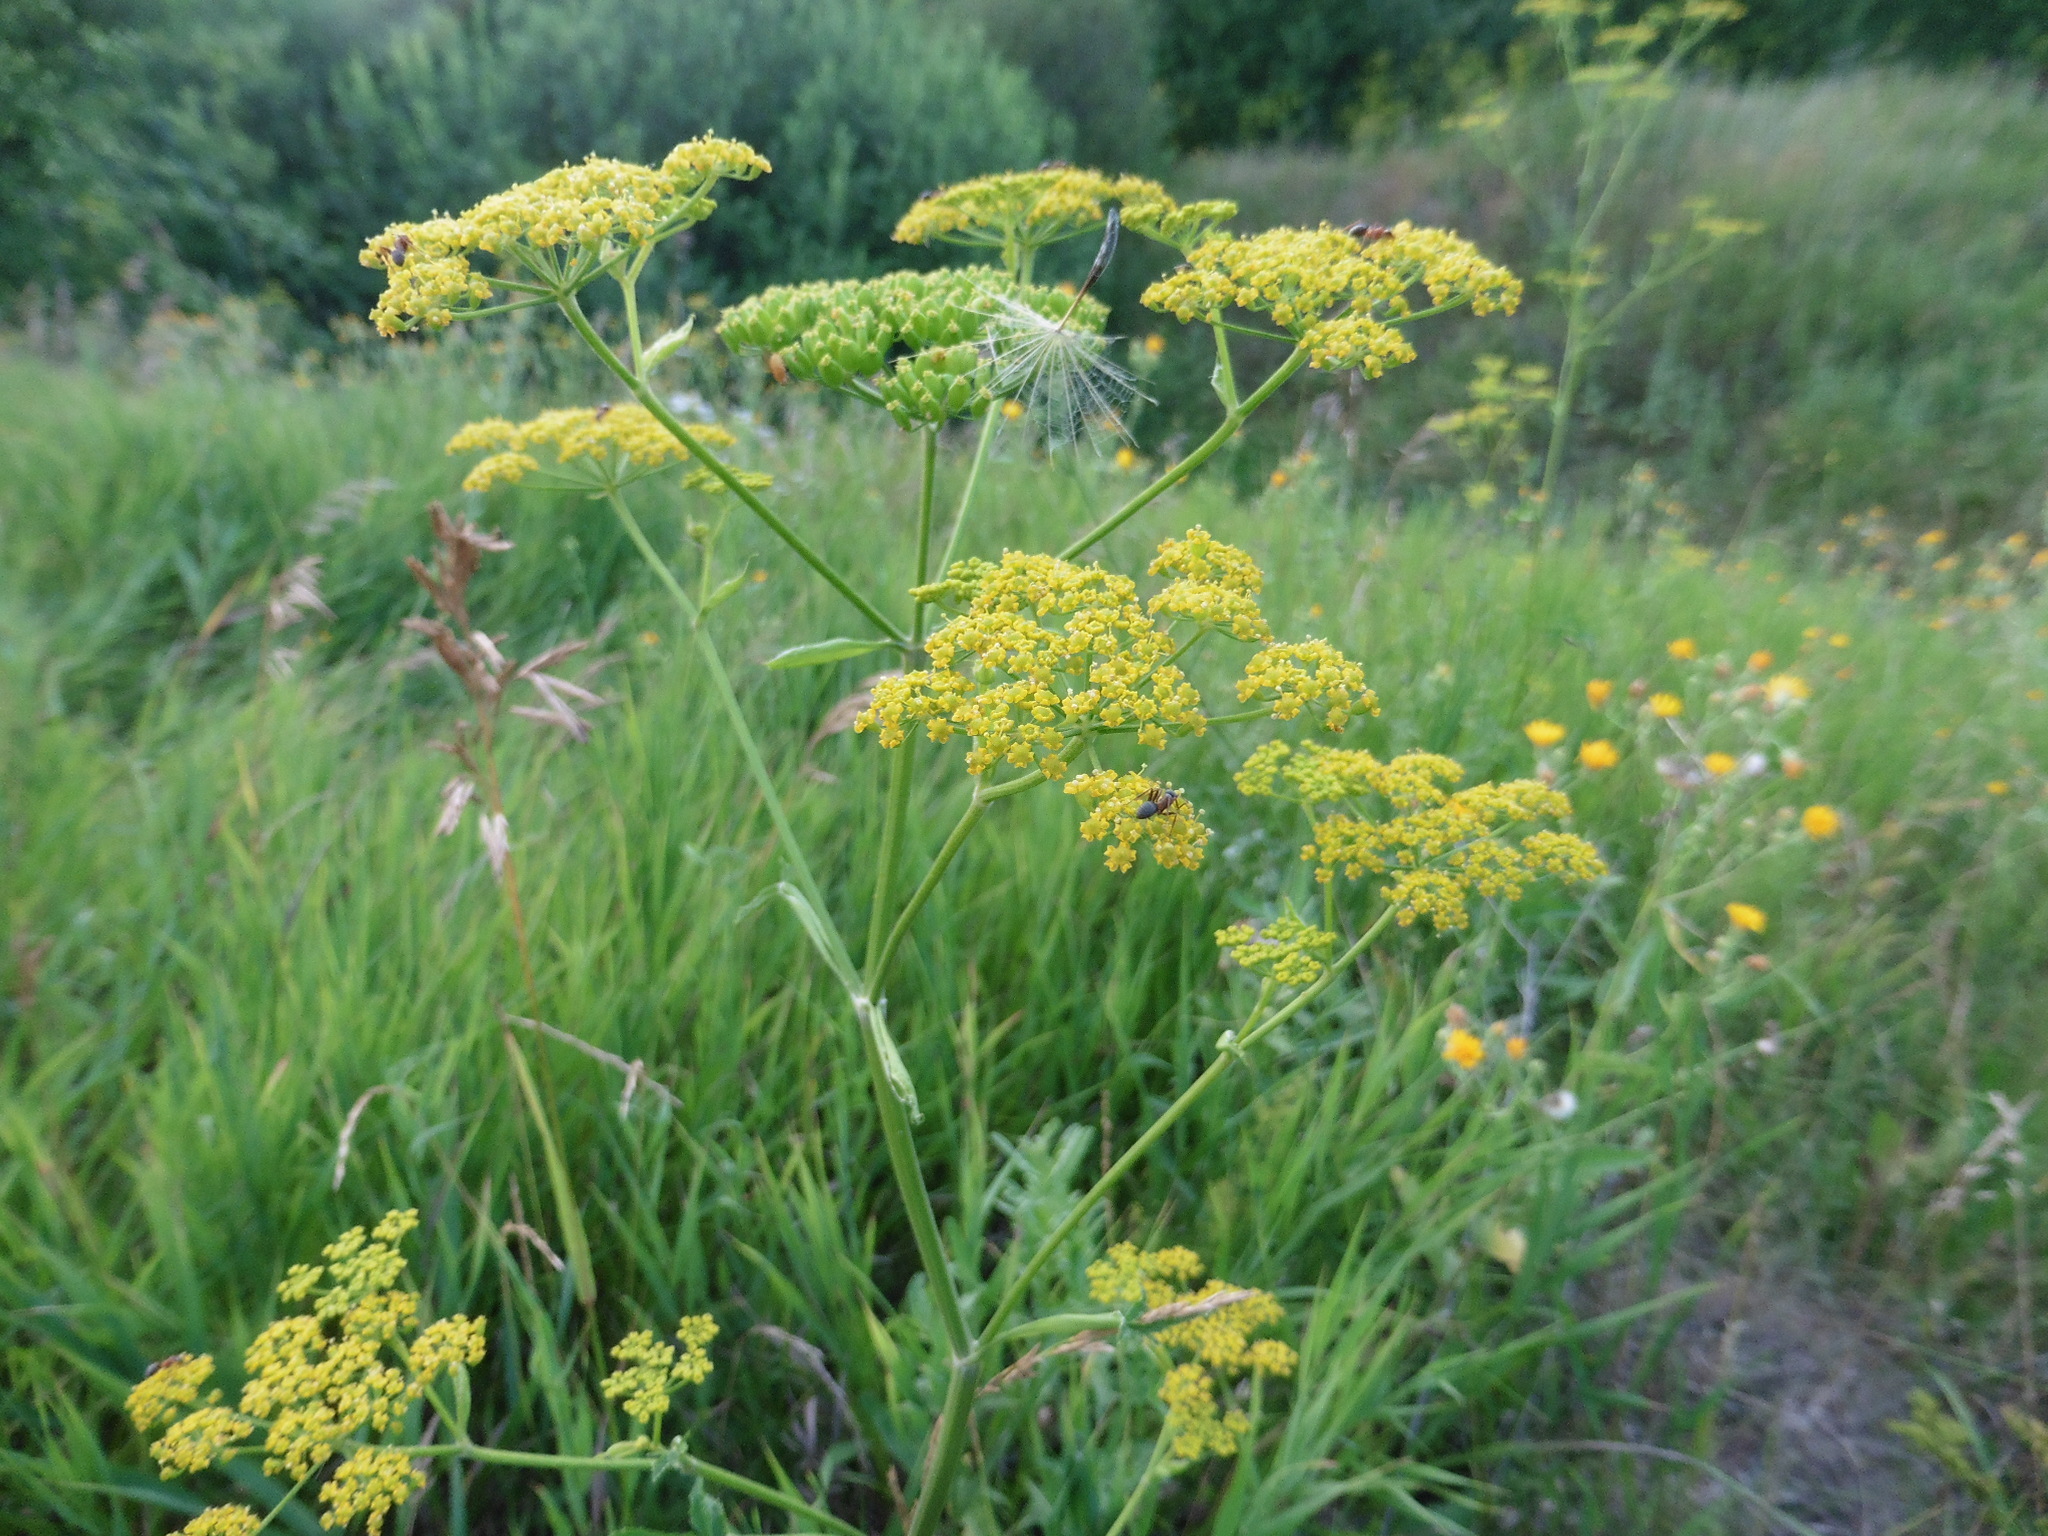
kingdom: Plantae
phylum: Tracheophyta
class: Magnoliopsida
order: Apiales
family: Apiaceae
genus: Pastinaca
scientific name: Pastinaca sativa
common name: Wild parsnip
